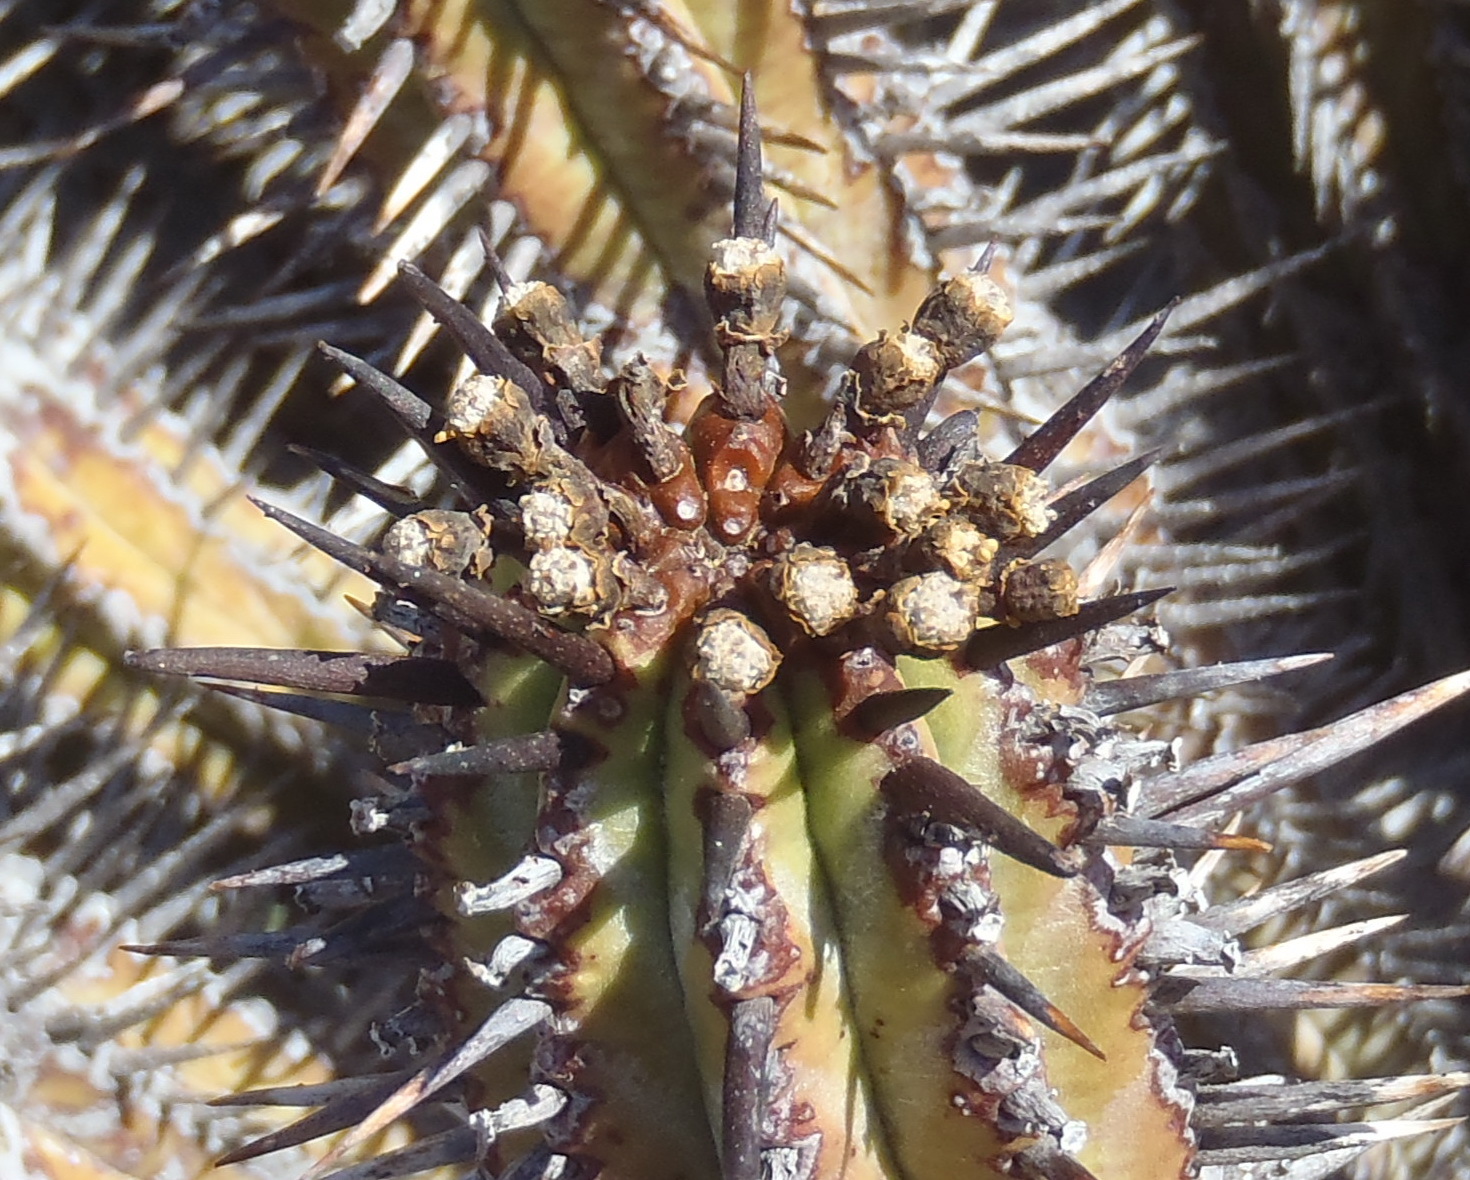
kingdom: Plantae
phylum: Tracheophyta
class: Magnoliopsida
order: Malpighiales
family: Euphorbiaceae
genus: Euphorbia
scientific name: Euphorbia heptagona
